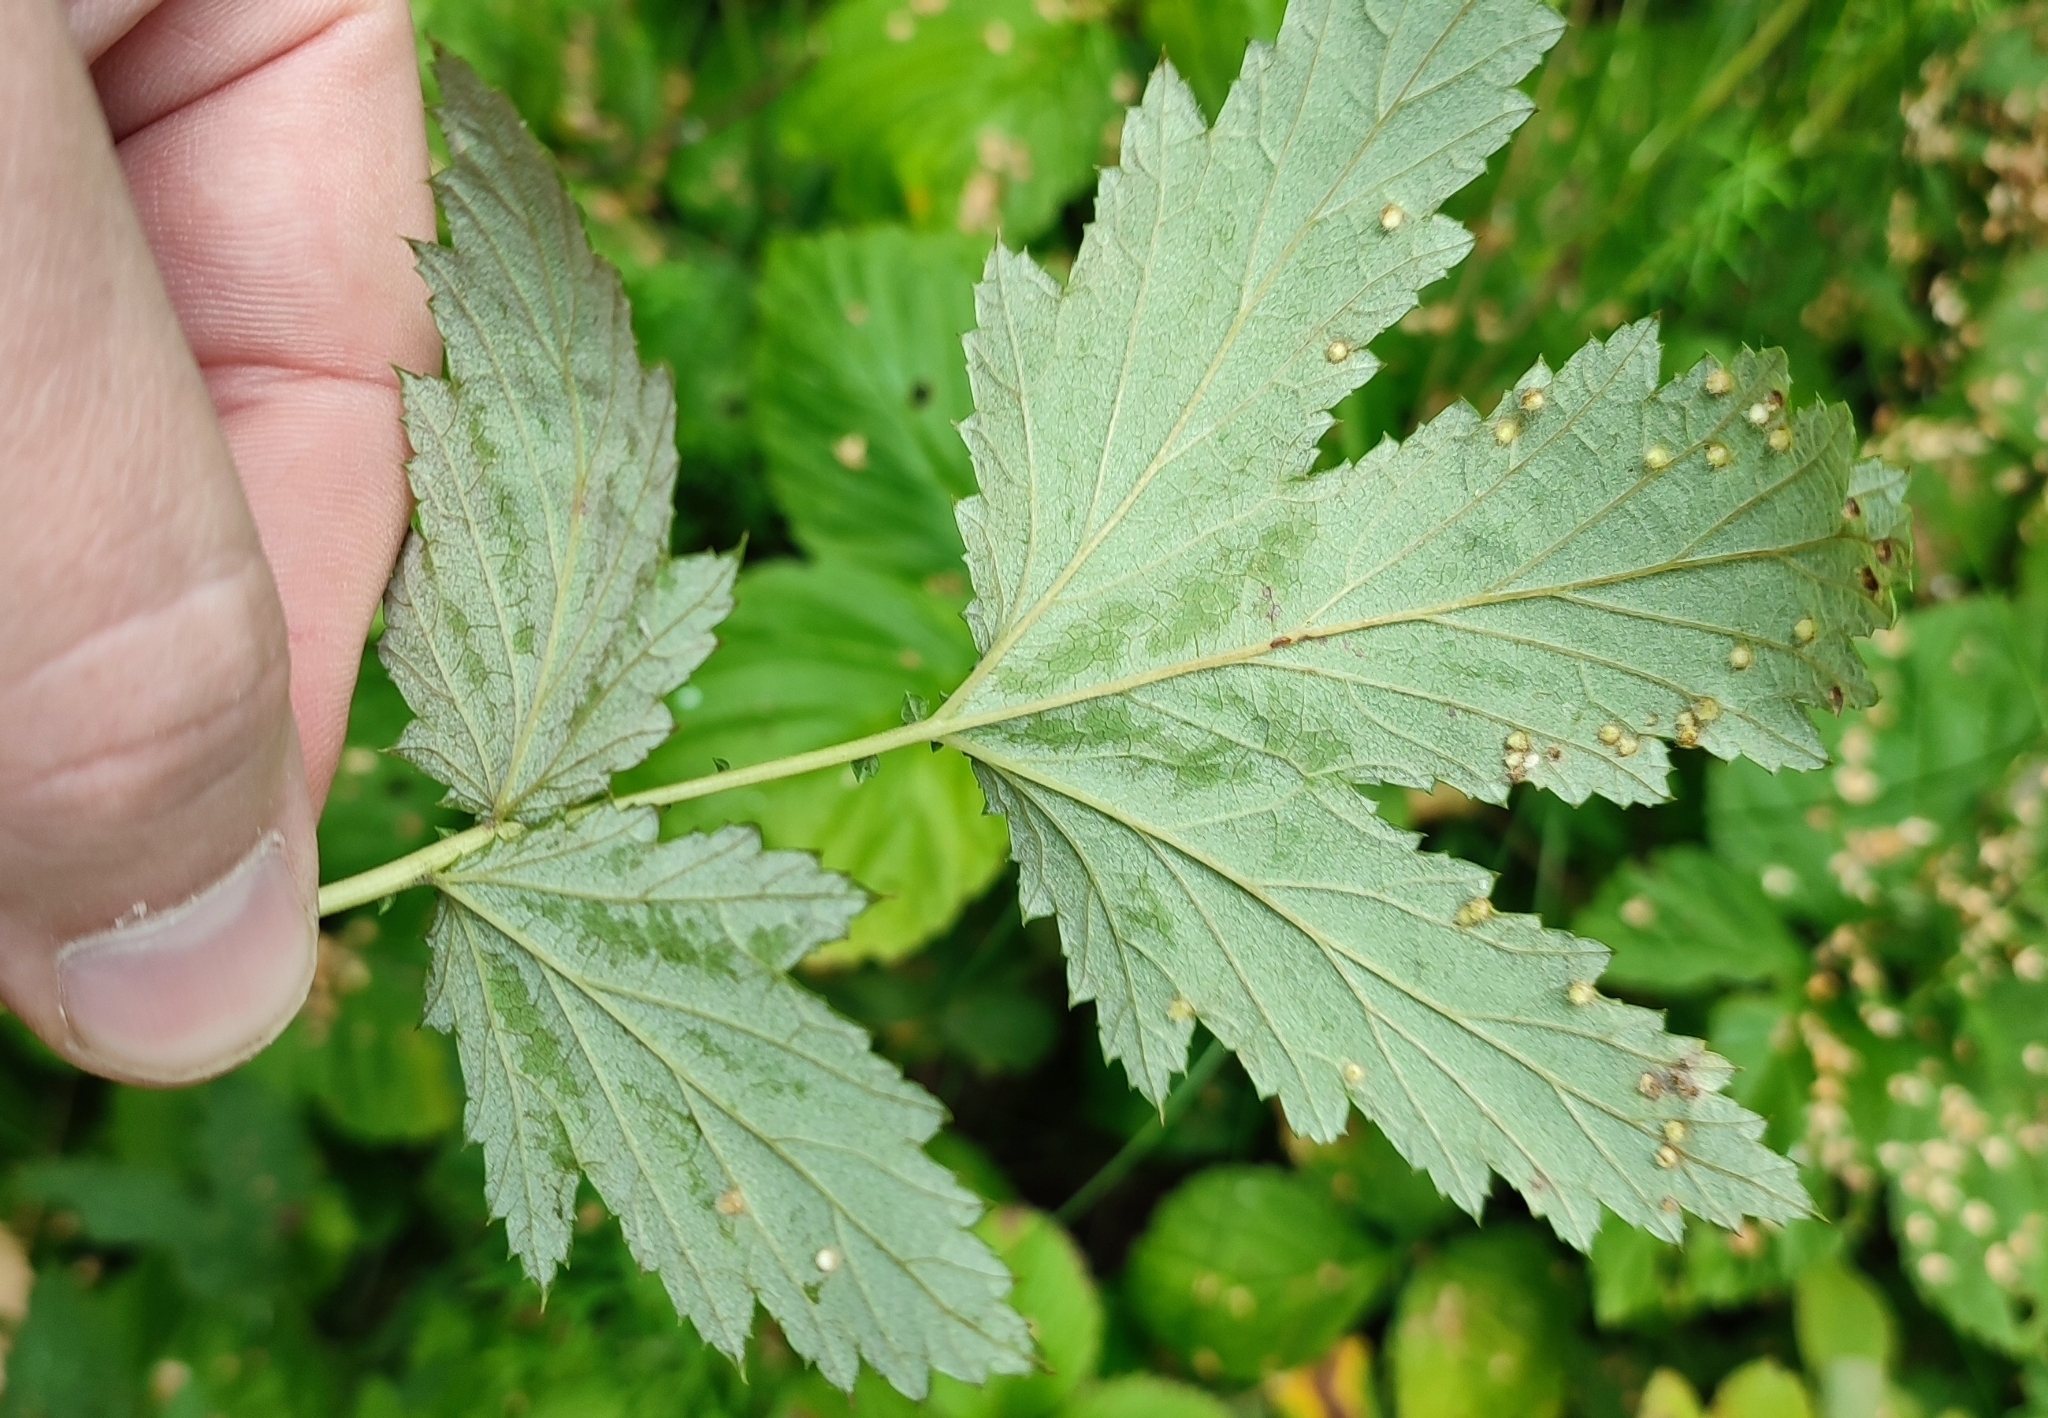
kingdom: Plantae
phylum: Tracheophyta
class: Magnoliopsida
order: Rosales
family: Rosaceae
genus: Filipendula
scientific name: Filipendula ulmaria
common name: Meadowsweet
